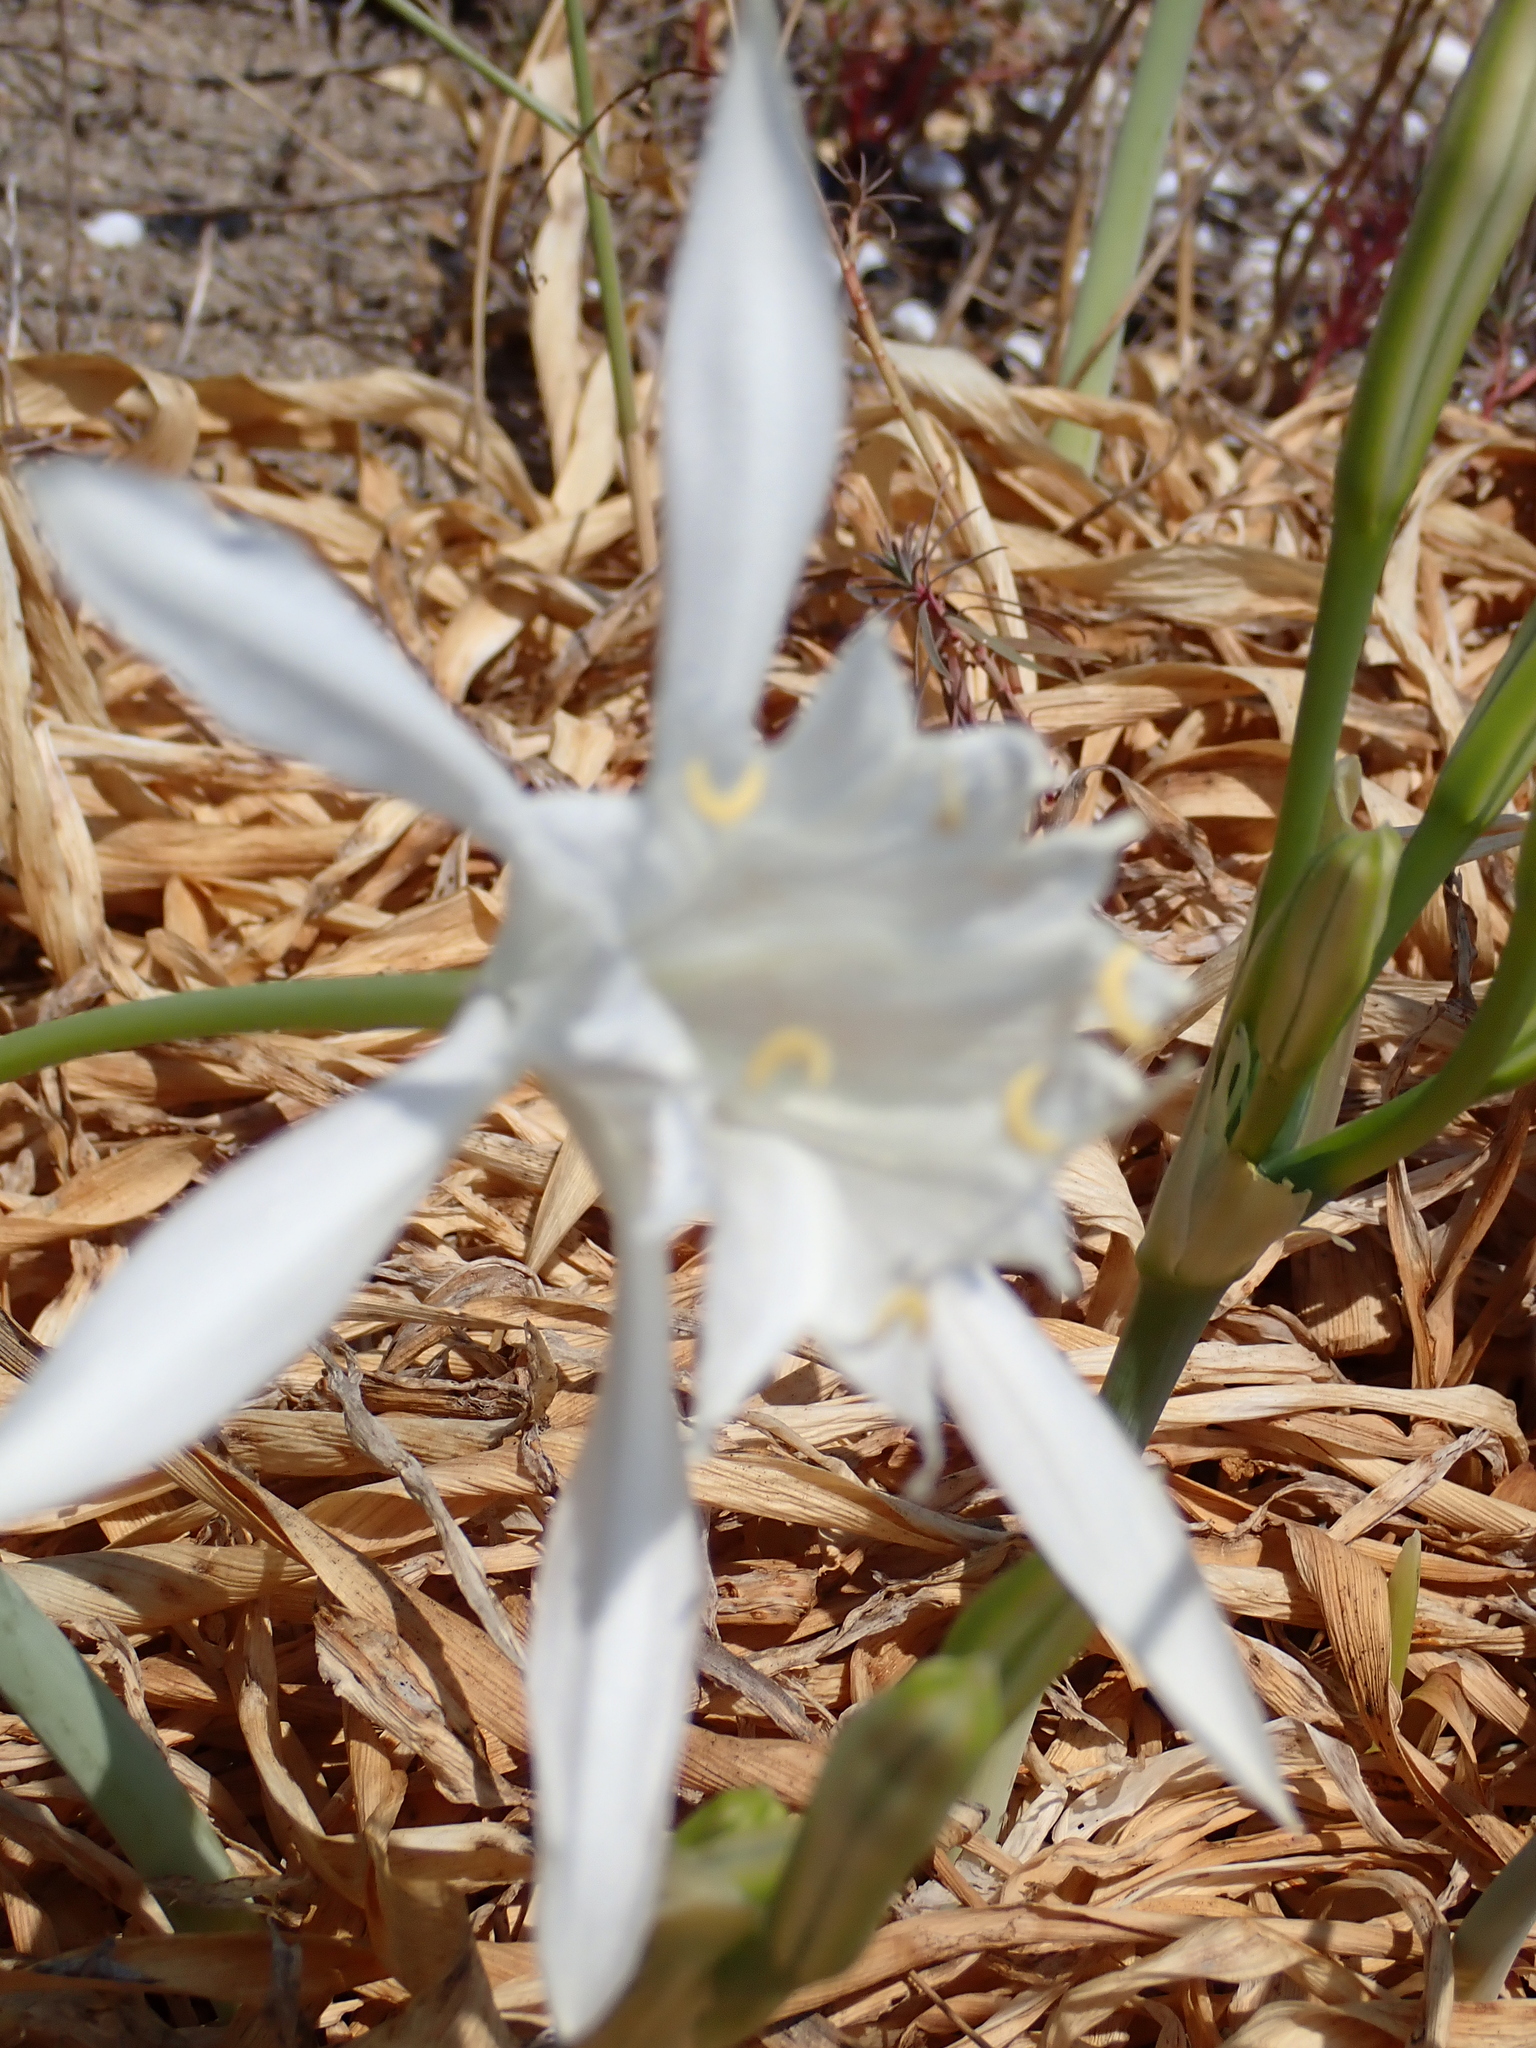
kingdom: Plantae
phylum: Tracheophyta
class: Liliopsida
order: Asparagales
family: Amaryllidaceae
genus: Pancratium
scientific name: Pancratium maritimum
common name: Sea-daffodil
